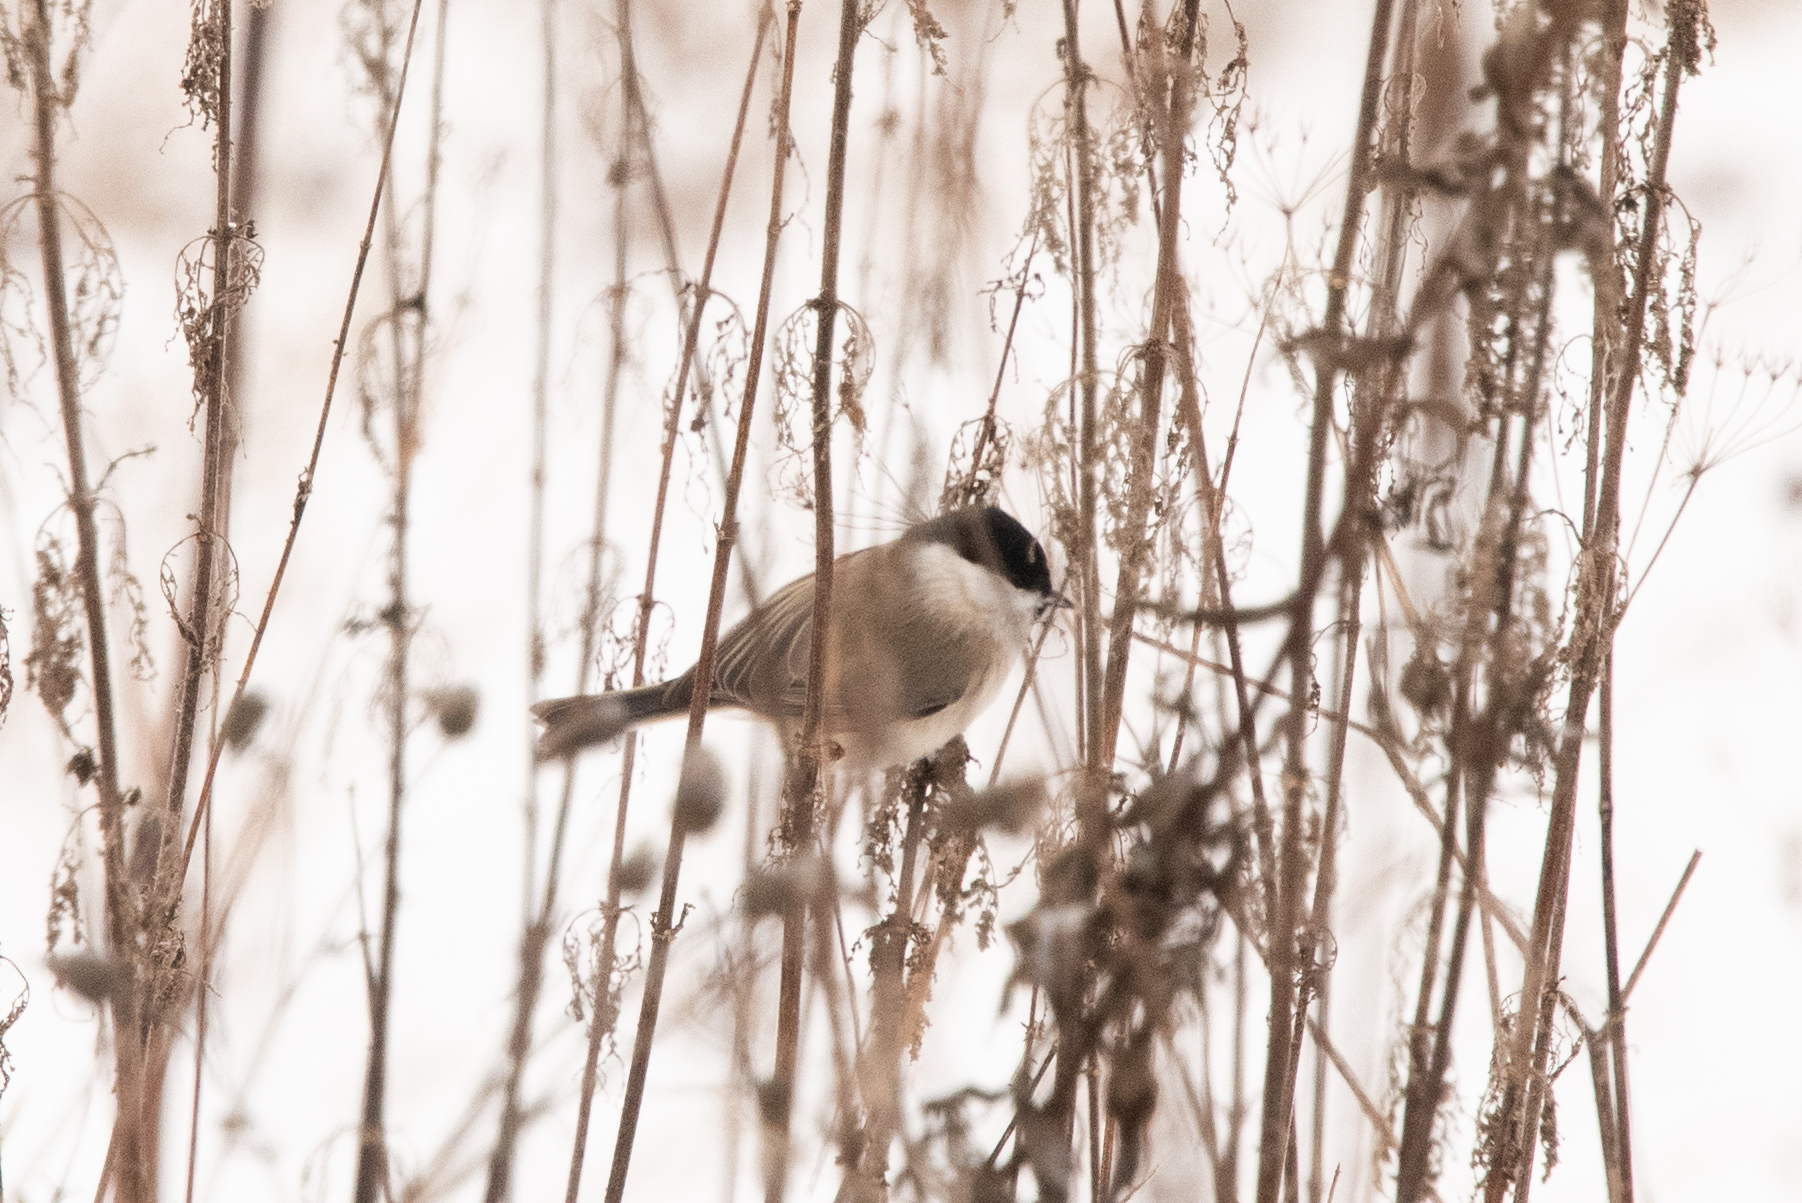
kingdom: Animalia
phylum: Chordata
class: Aves
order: Passeriformes
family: Paridae
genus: Poecile
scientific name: Poecile palustris
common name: Marsh tit
